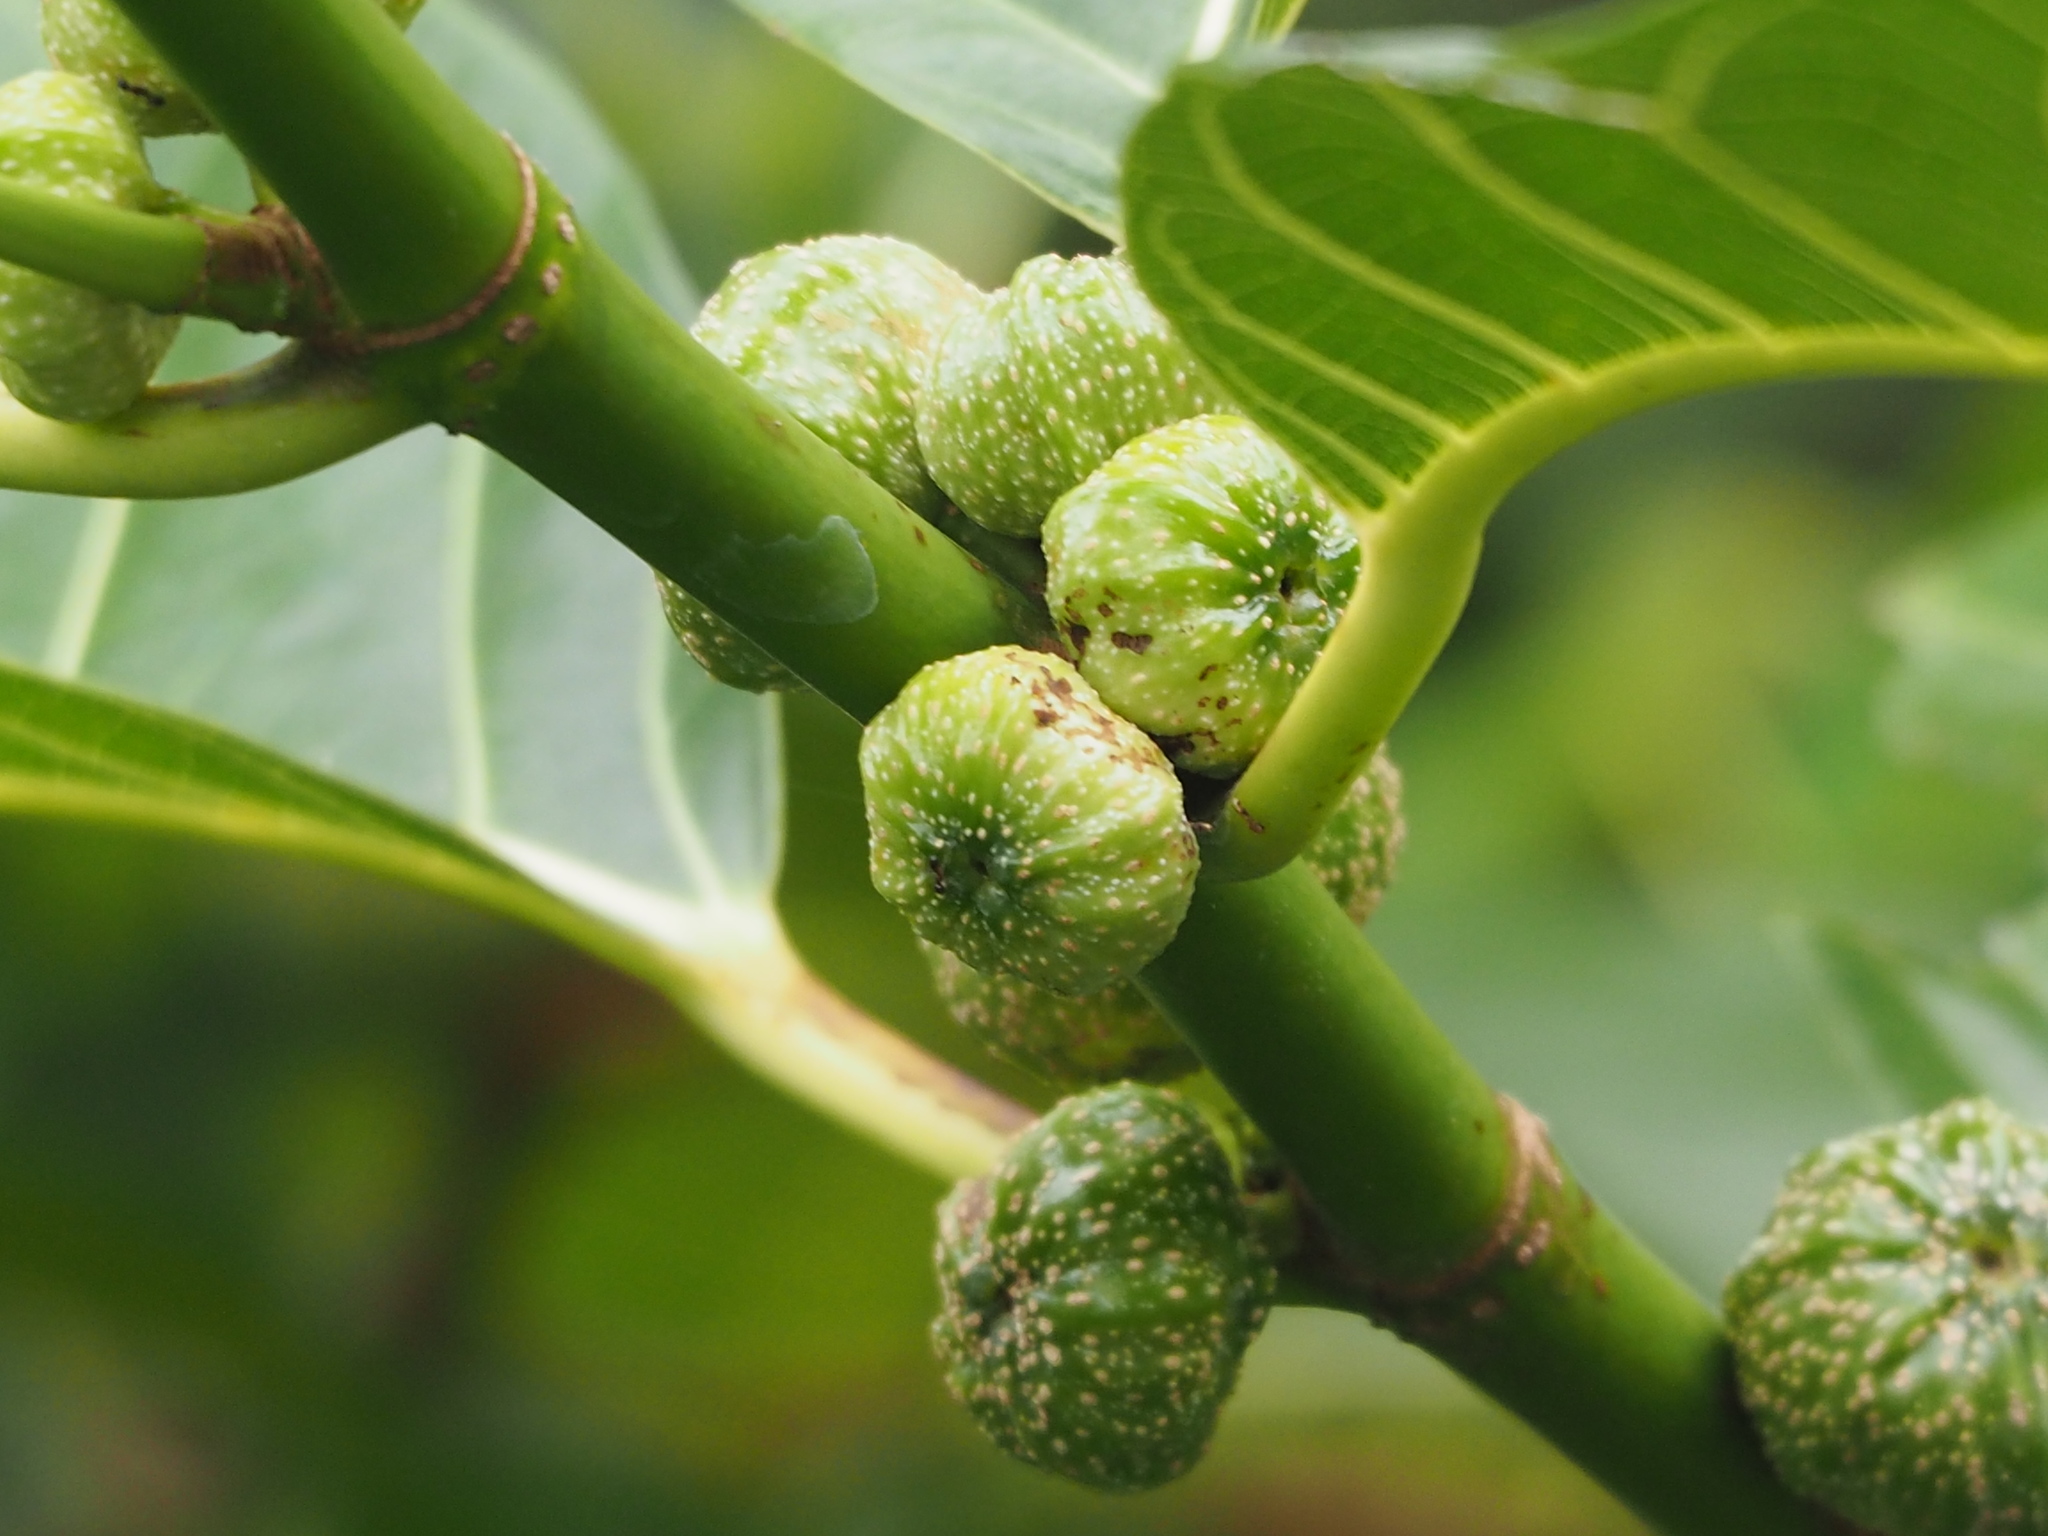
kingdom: Plantae
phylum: Tracheophyta
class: Magnoliopsida
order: Rosales
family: Moraceae
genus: Ficus
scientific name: Ficus septica
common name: Septic fig
